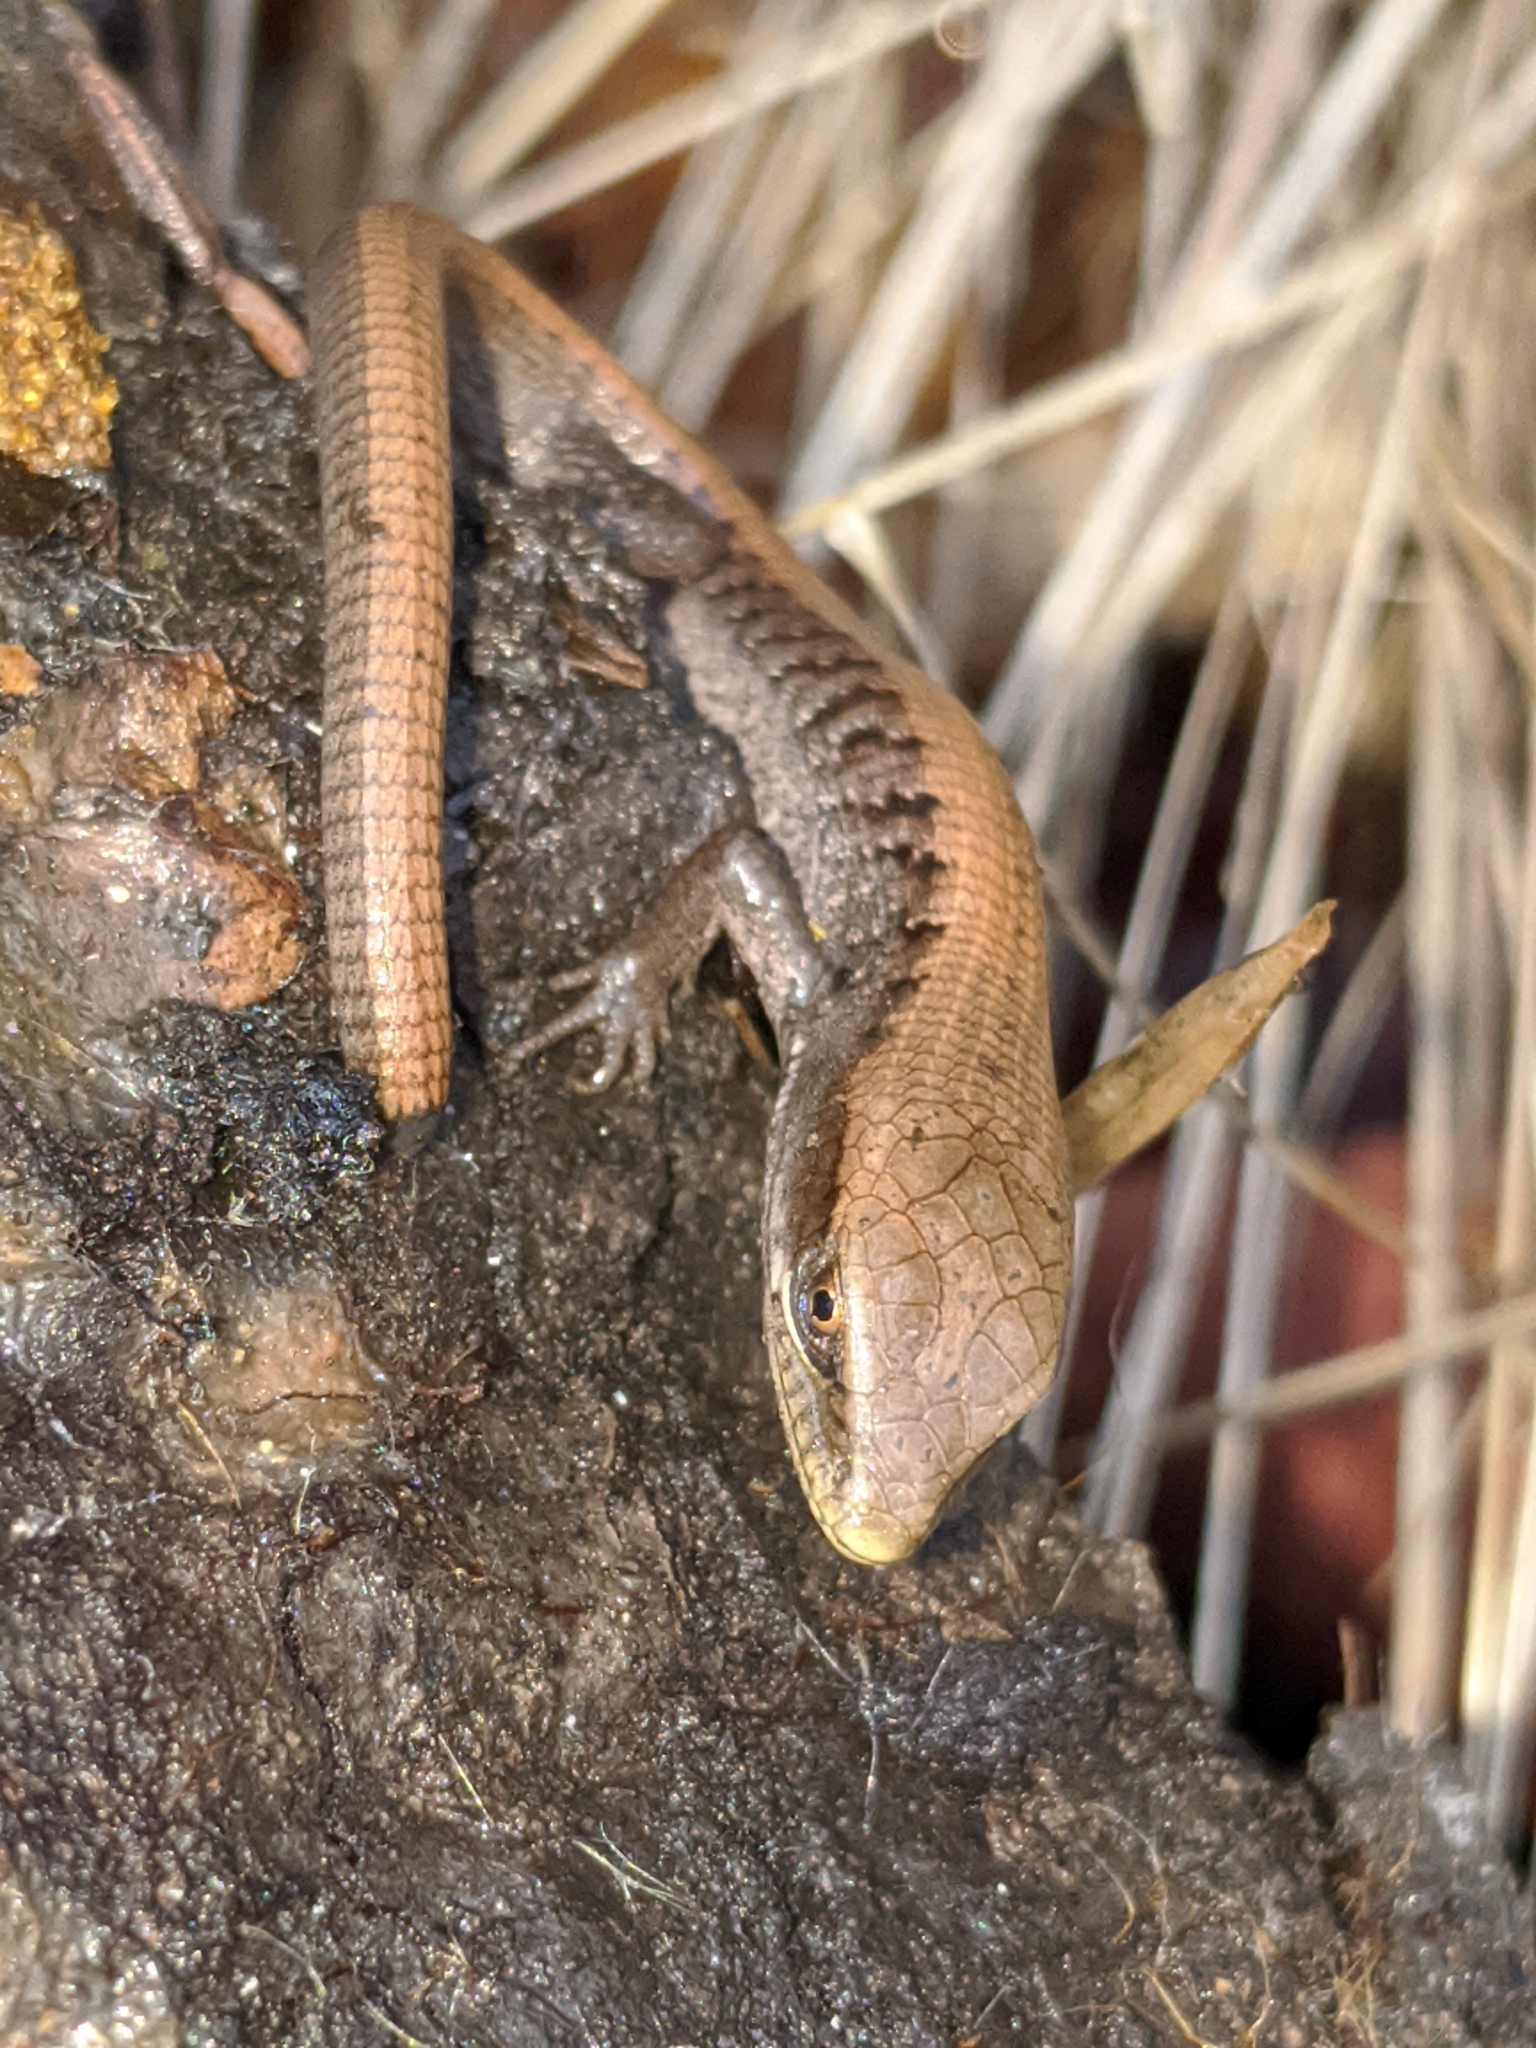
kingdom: Animalia
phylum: Chordata
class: Squamata
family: Anguidae
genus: Elgaria
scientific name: Elgaria multicarinata
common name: Southern alligator lizard
